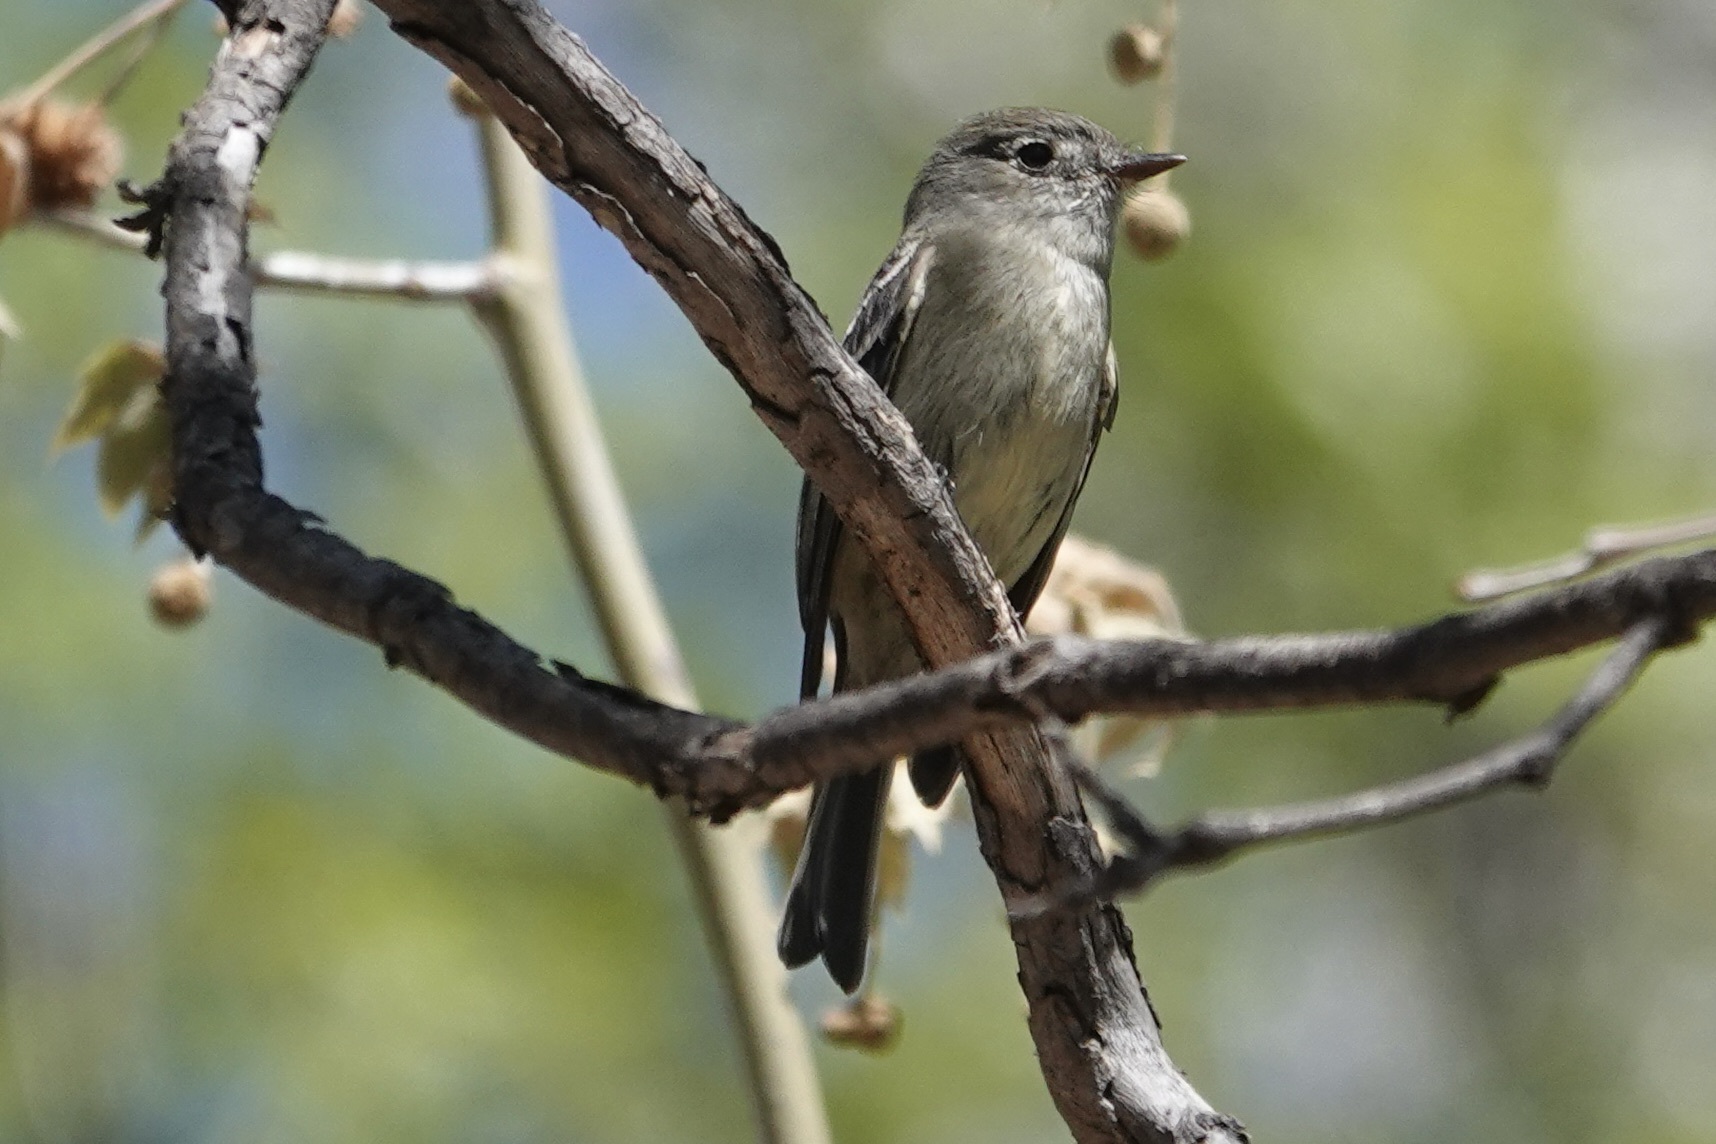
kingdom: Animalia
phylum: Chordata
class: Aves
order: Passeriformes
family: Tyrannidae
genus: Empidonax
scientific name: Empidonax hammondii
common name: Hammond's flycatcher
